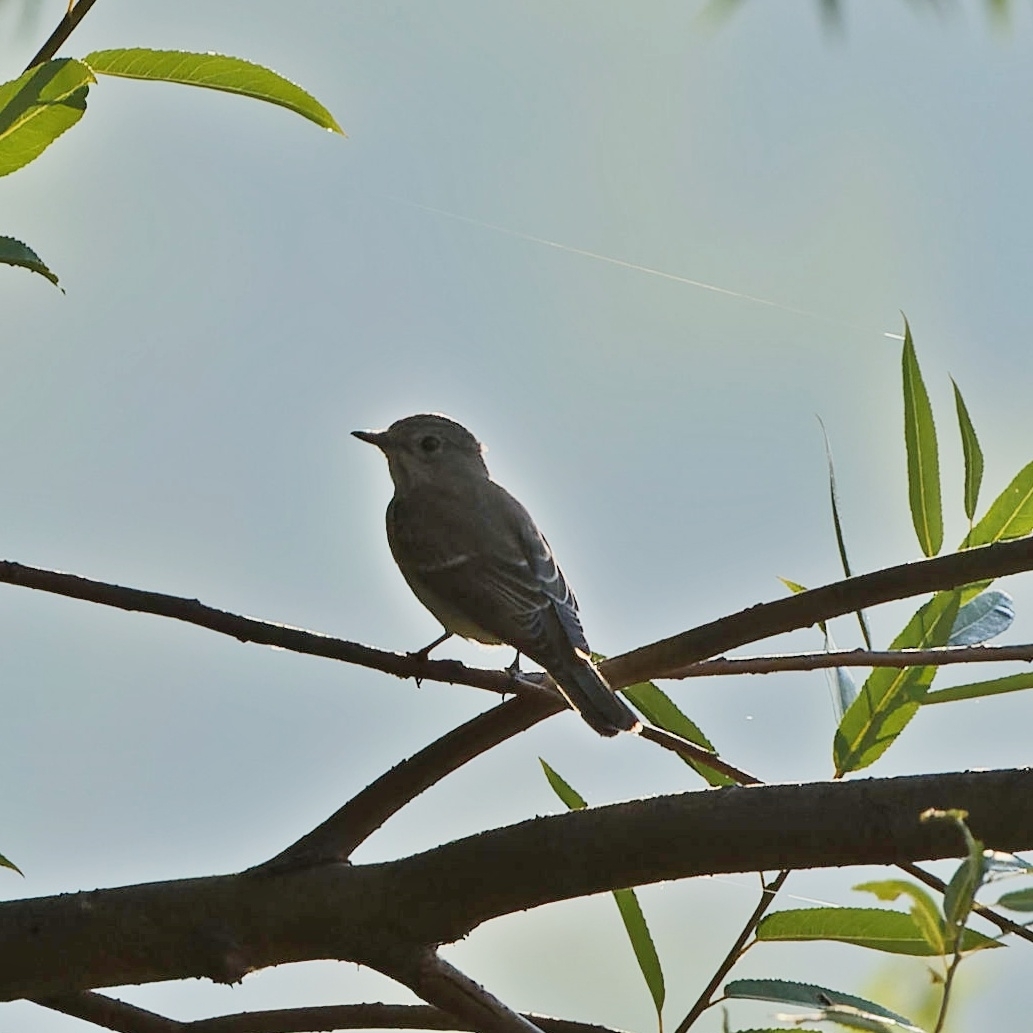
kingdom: Animalia
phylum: Chordata
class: Aves
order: Passeriformes
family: Muscicapidae
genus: Muscicapa
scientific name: Muscicapa striata
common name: Spotted flycatcher
